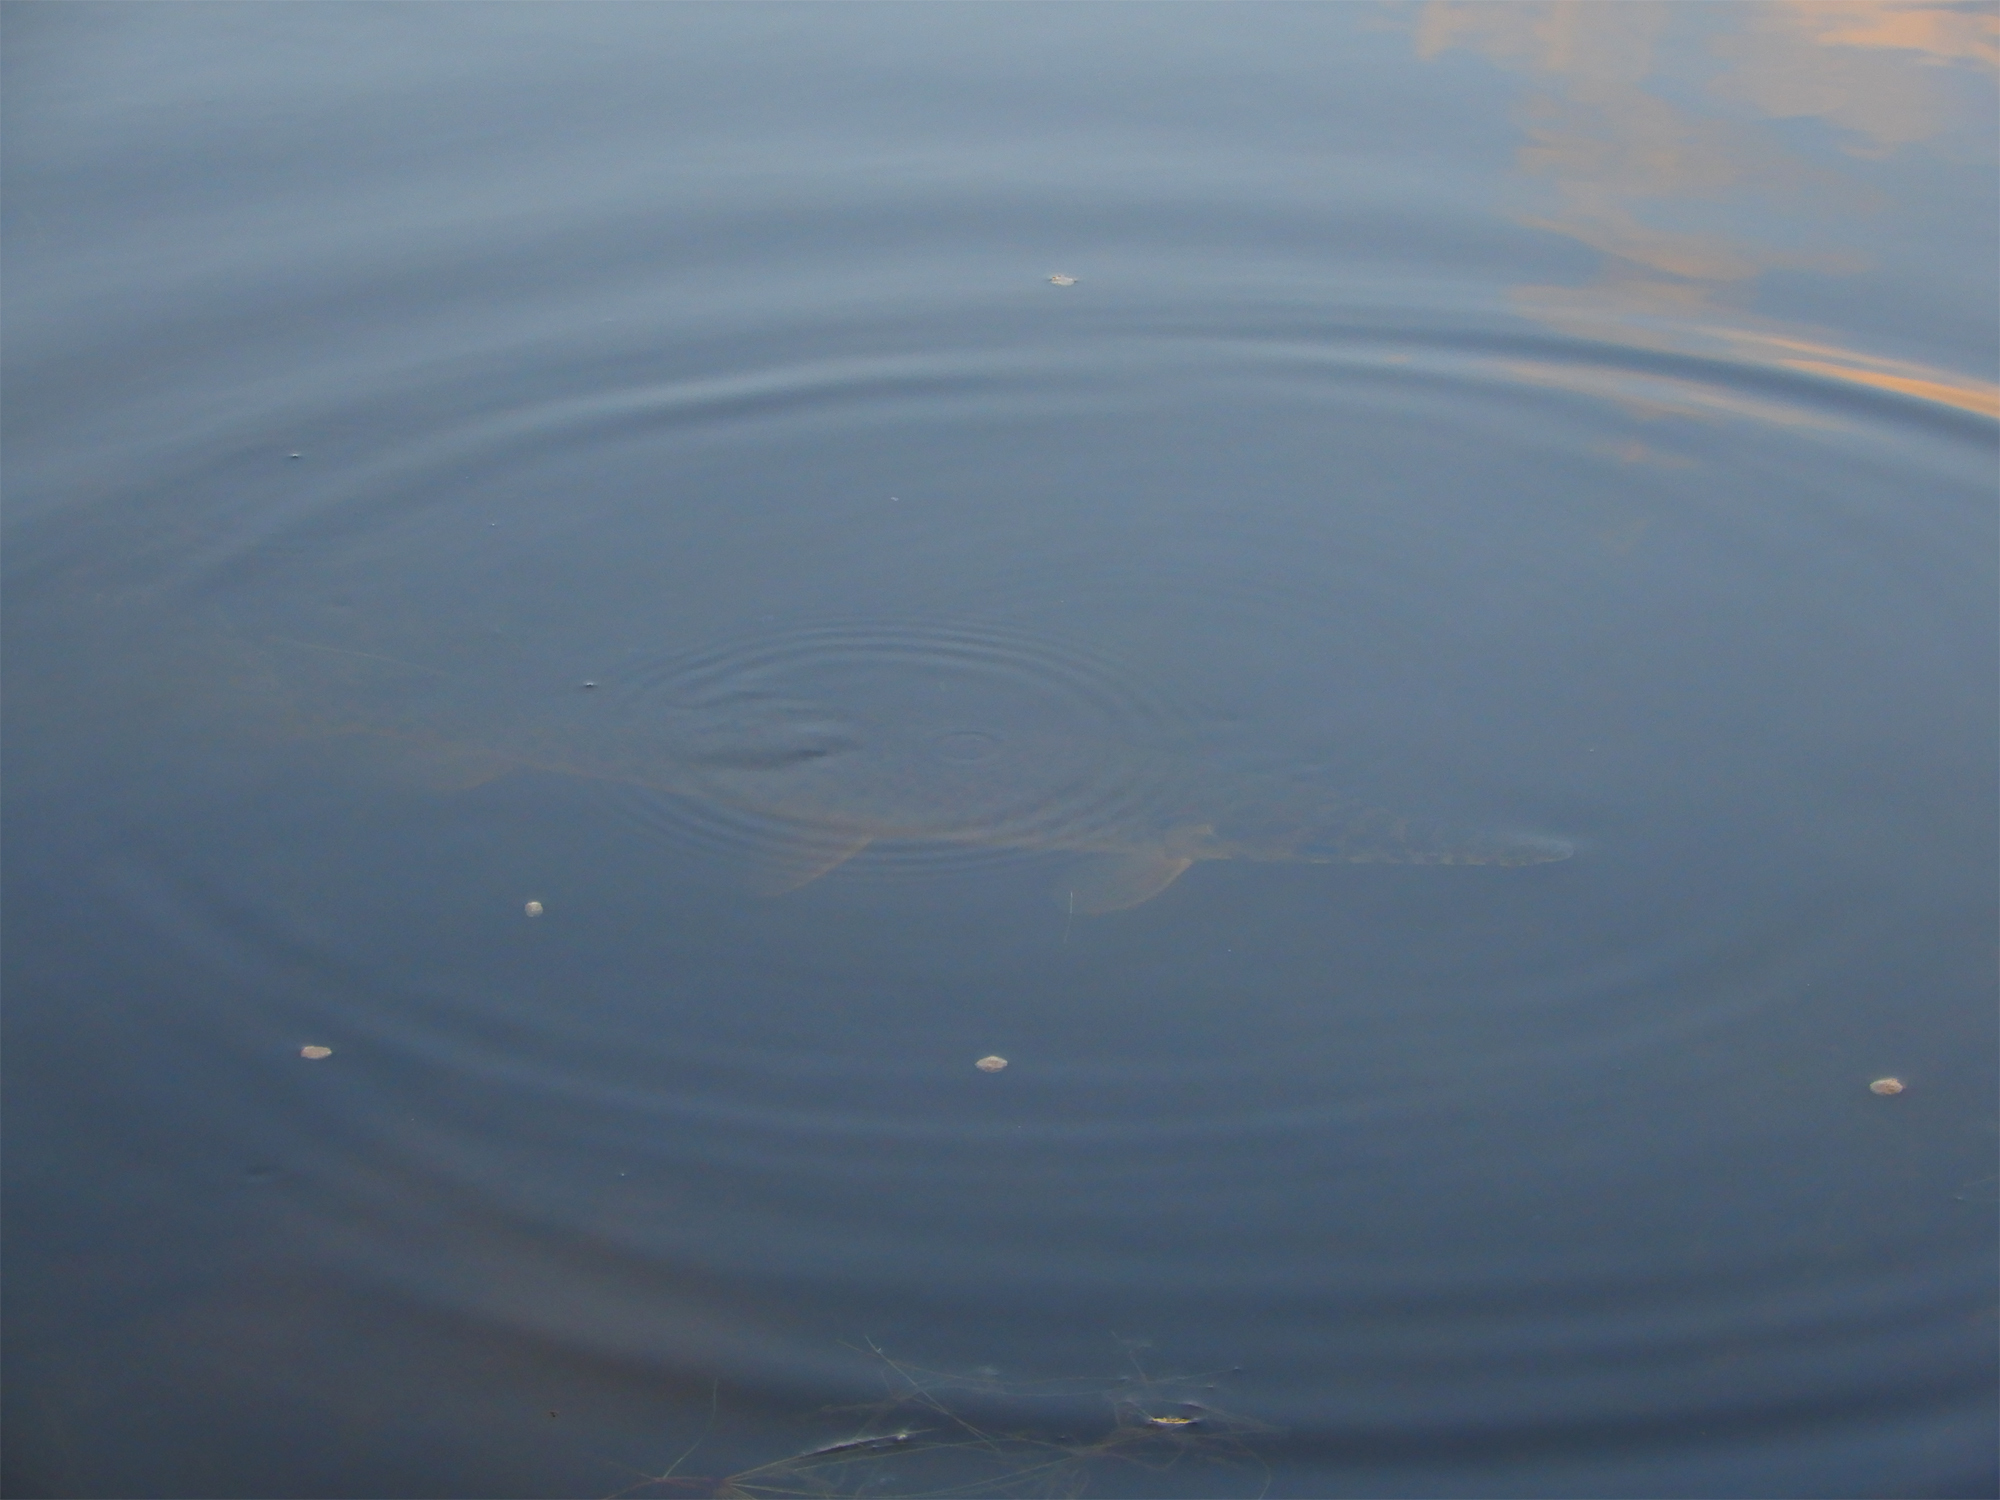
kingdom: Animalia
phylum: Chordata
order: Lepisosteiformes
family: Lepisosteidae
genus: Lepisosteus
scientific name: Lepisosteus platyrhincus
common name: Florida gar
